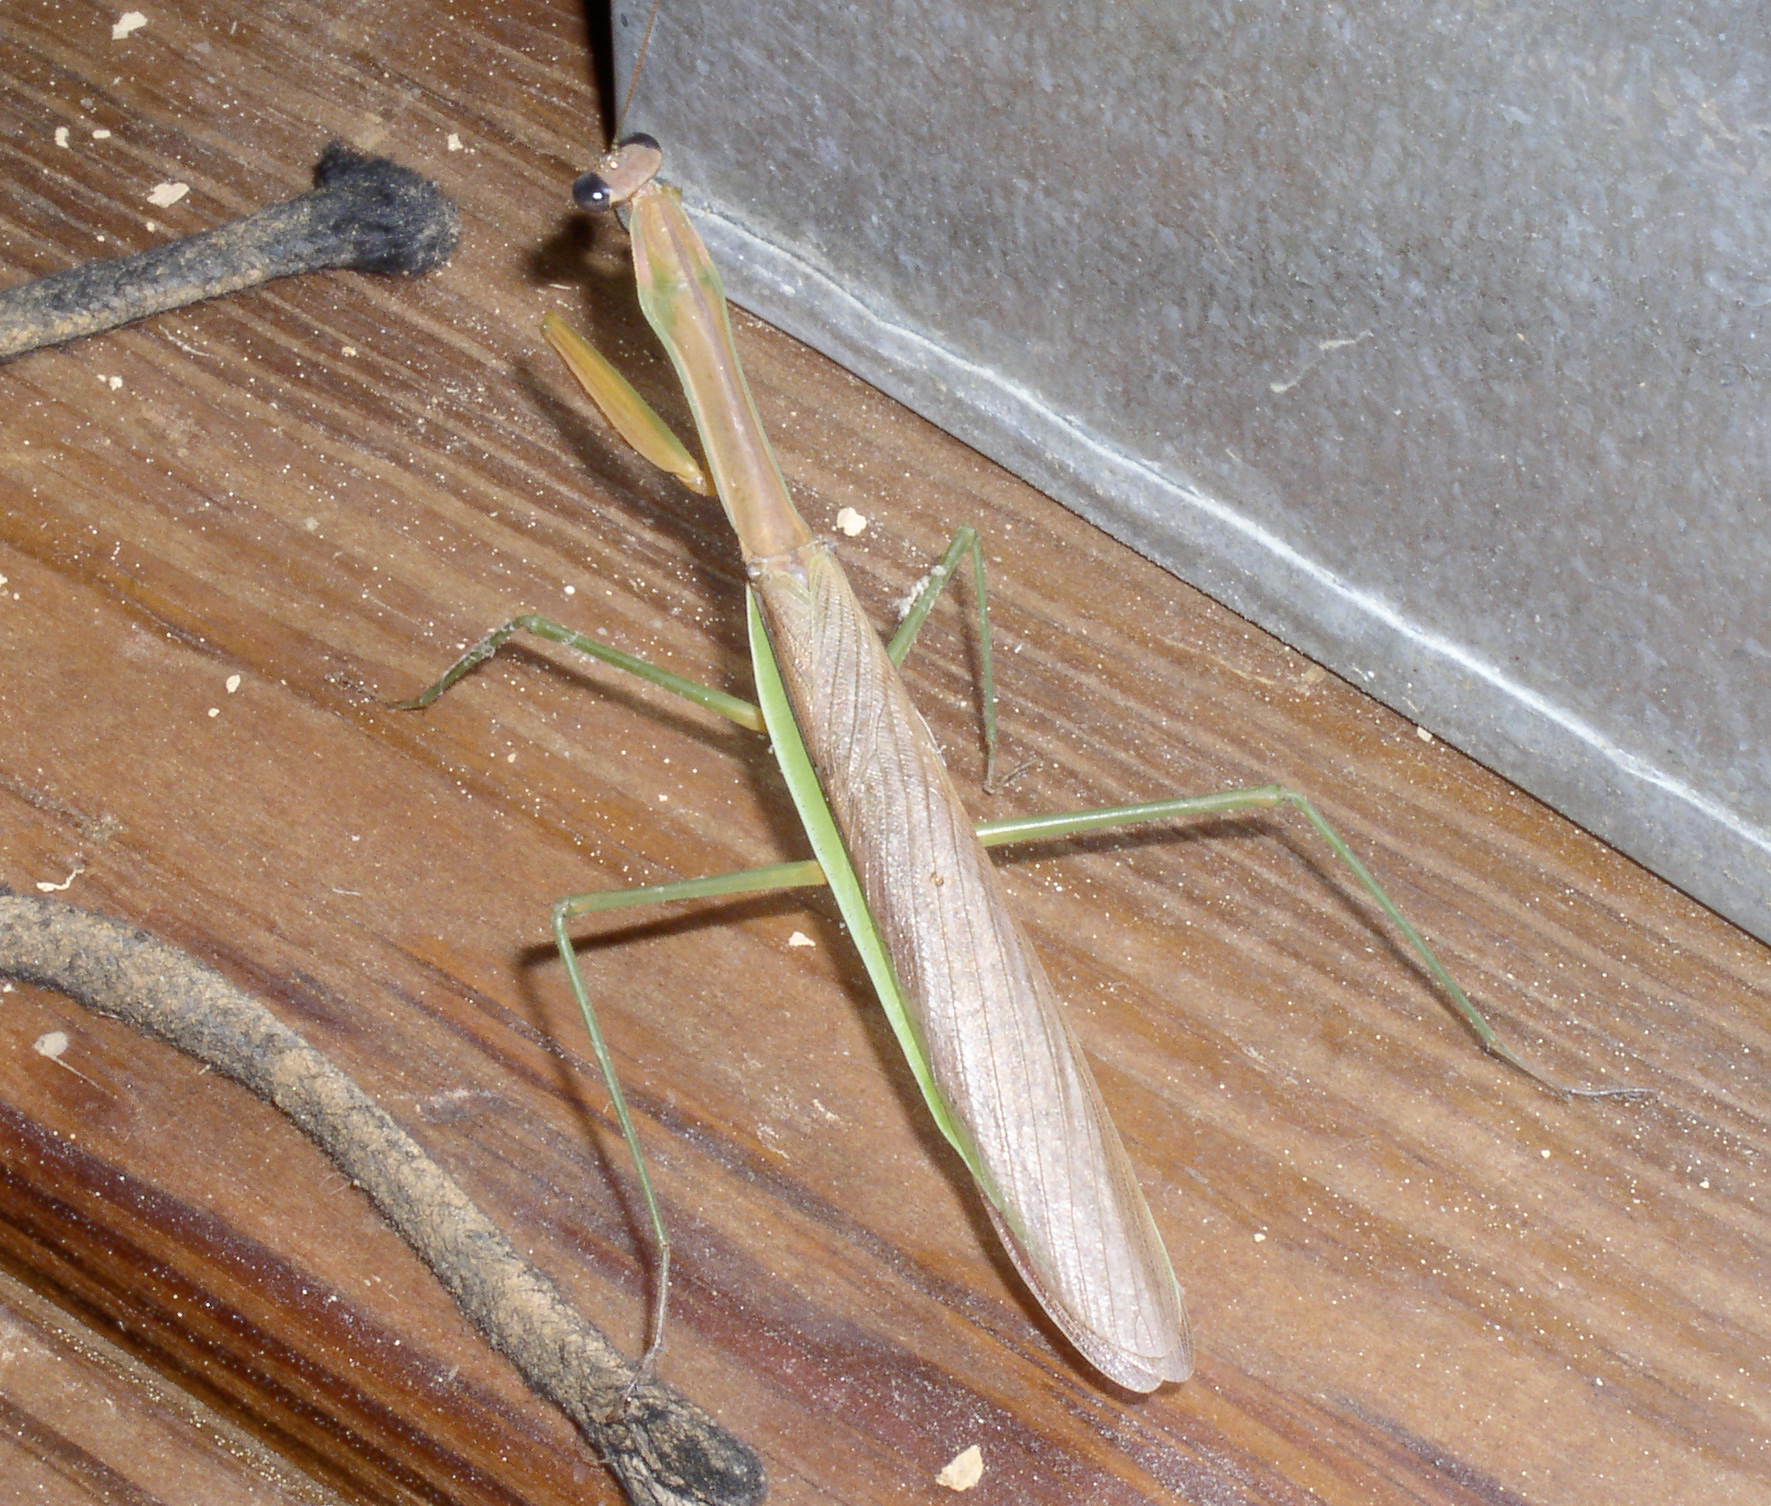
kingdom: Animalia
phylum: Arthropoda
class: Insecta
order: Mantodea
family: Mantidae
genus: Tenodera
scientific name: Tenodera sinensis
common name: Chinese mantis
